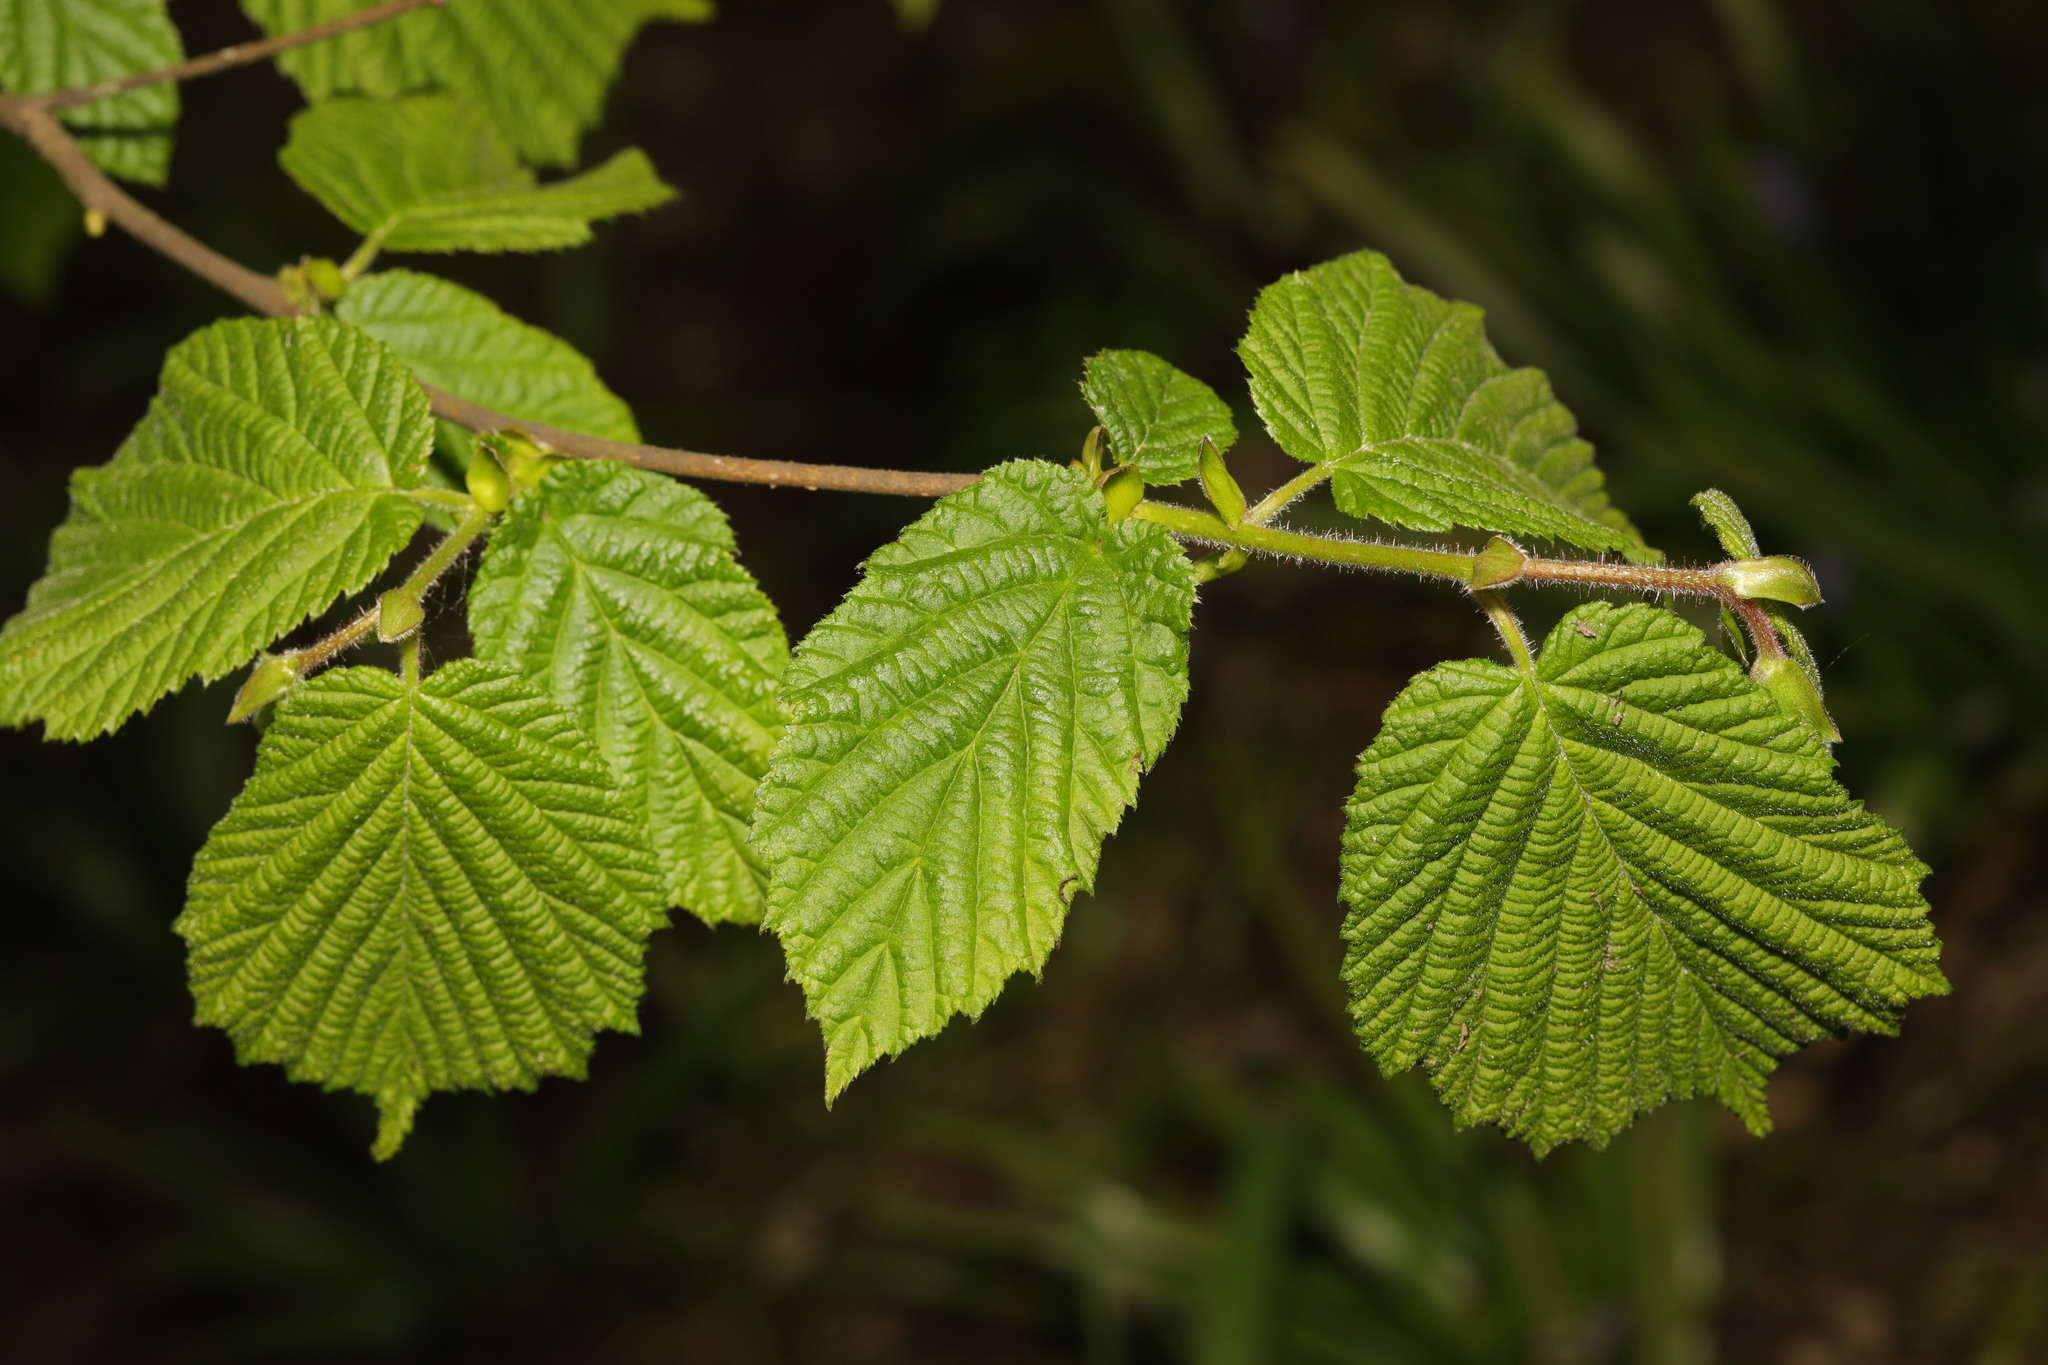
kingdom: Plantae
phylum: Tracheophyta
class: Magnoliopsida
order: Fagales
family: Betulaceae
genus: Corylus
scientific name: Corylus avellana
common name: European hazel
